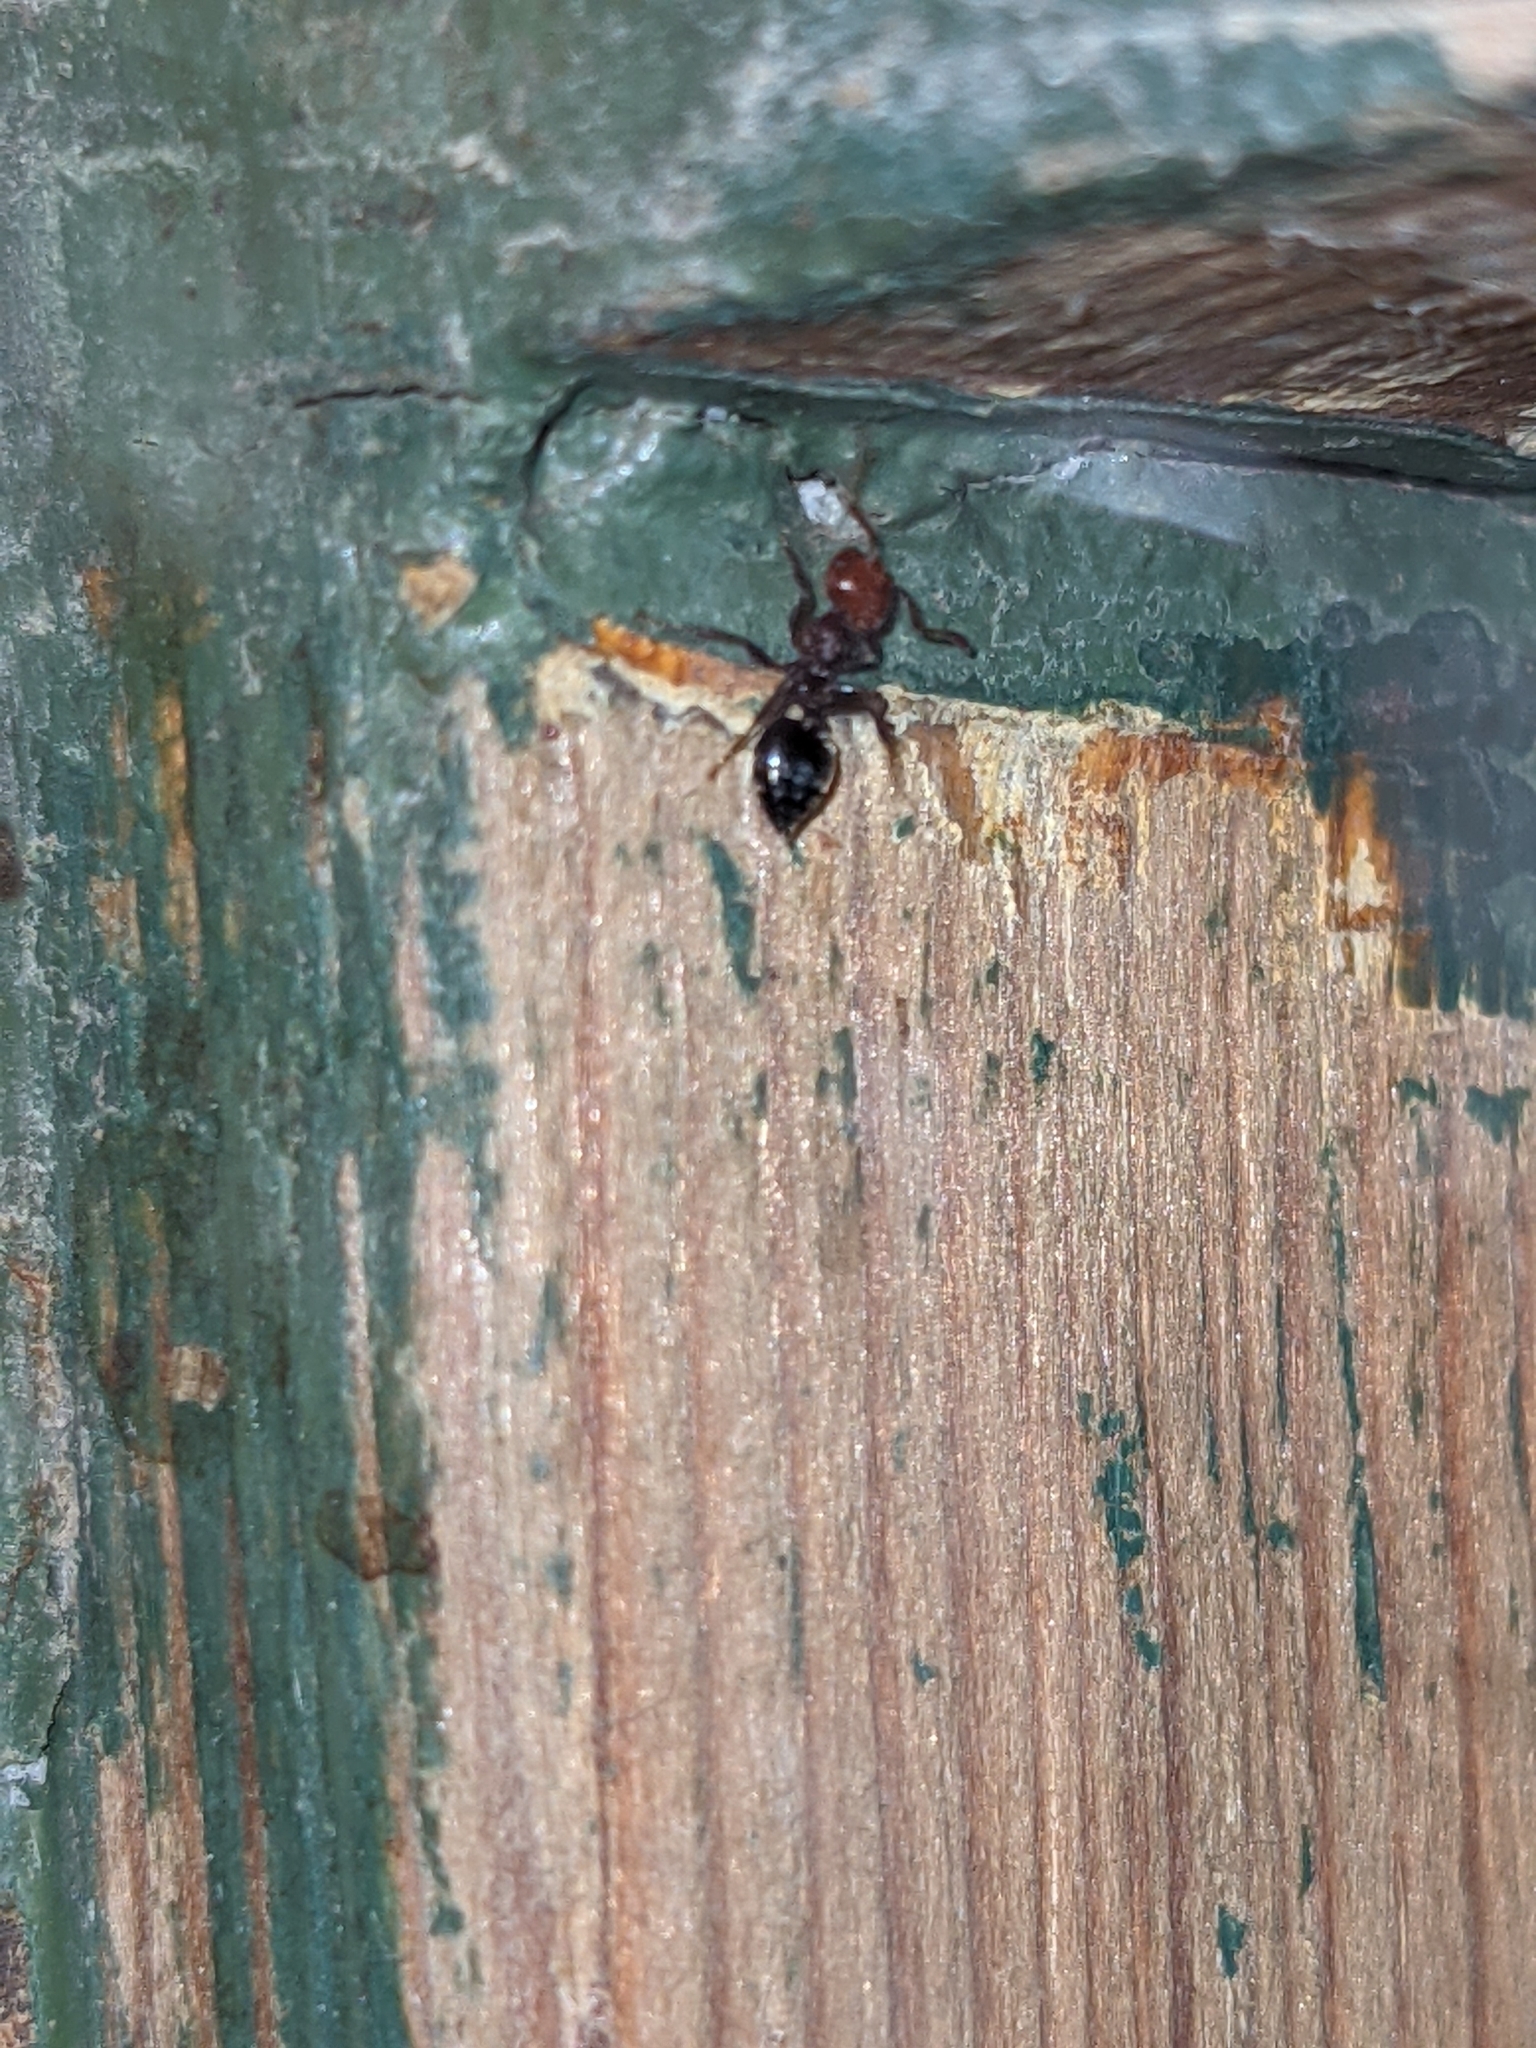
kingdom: Animalia
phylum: Arthropoda
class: Insecta
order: Hymenoptera
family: Formicidae
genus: Crematogaster
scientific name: Crematogaster scutellaris
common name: Fourmi du liège
